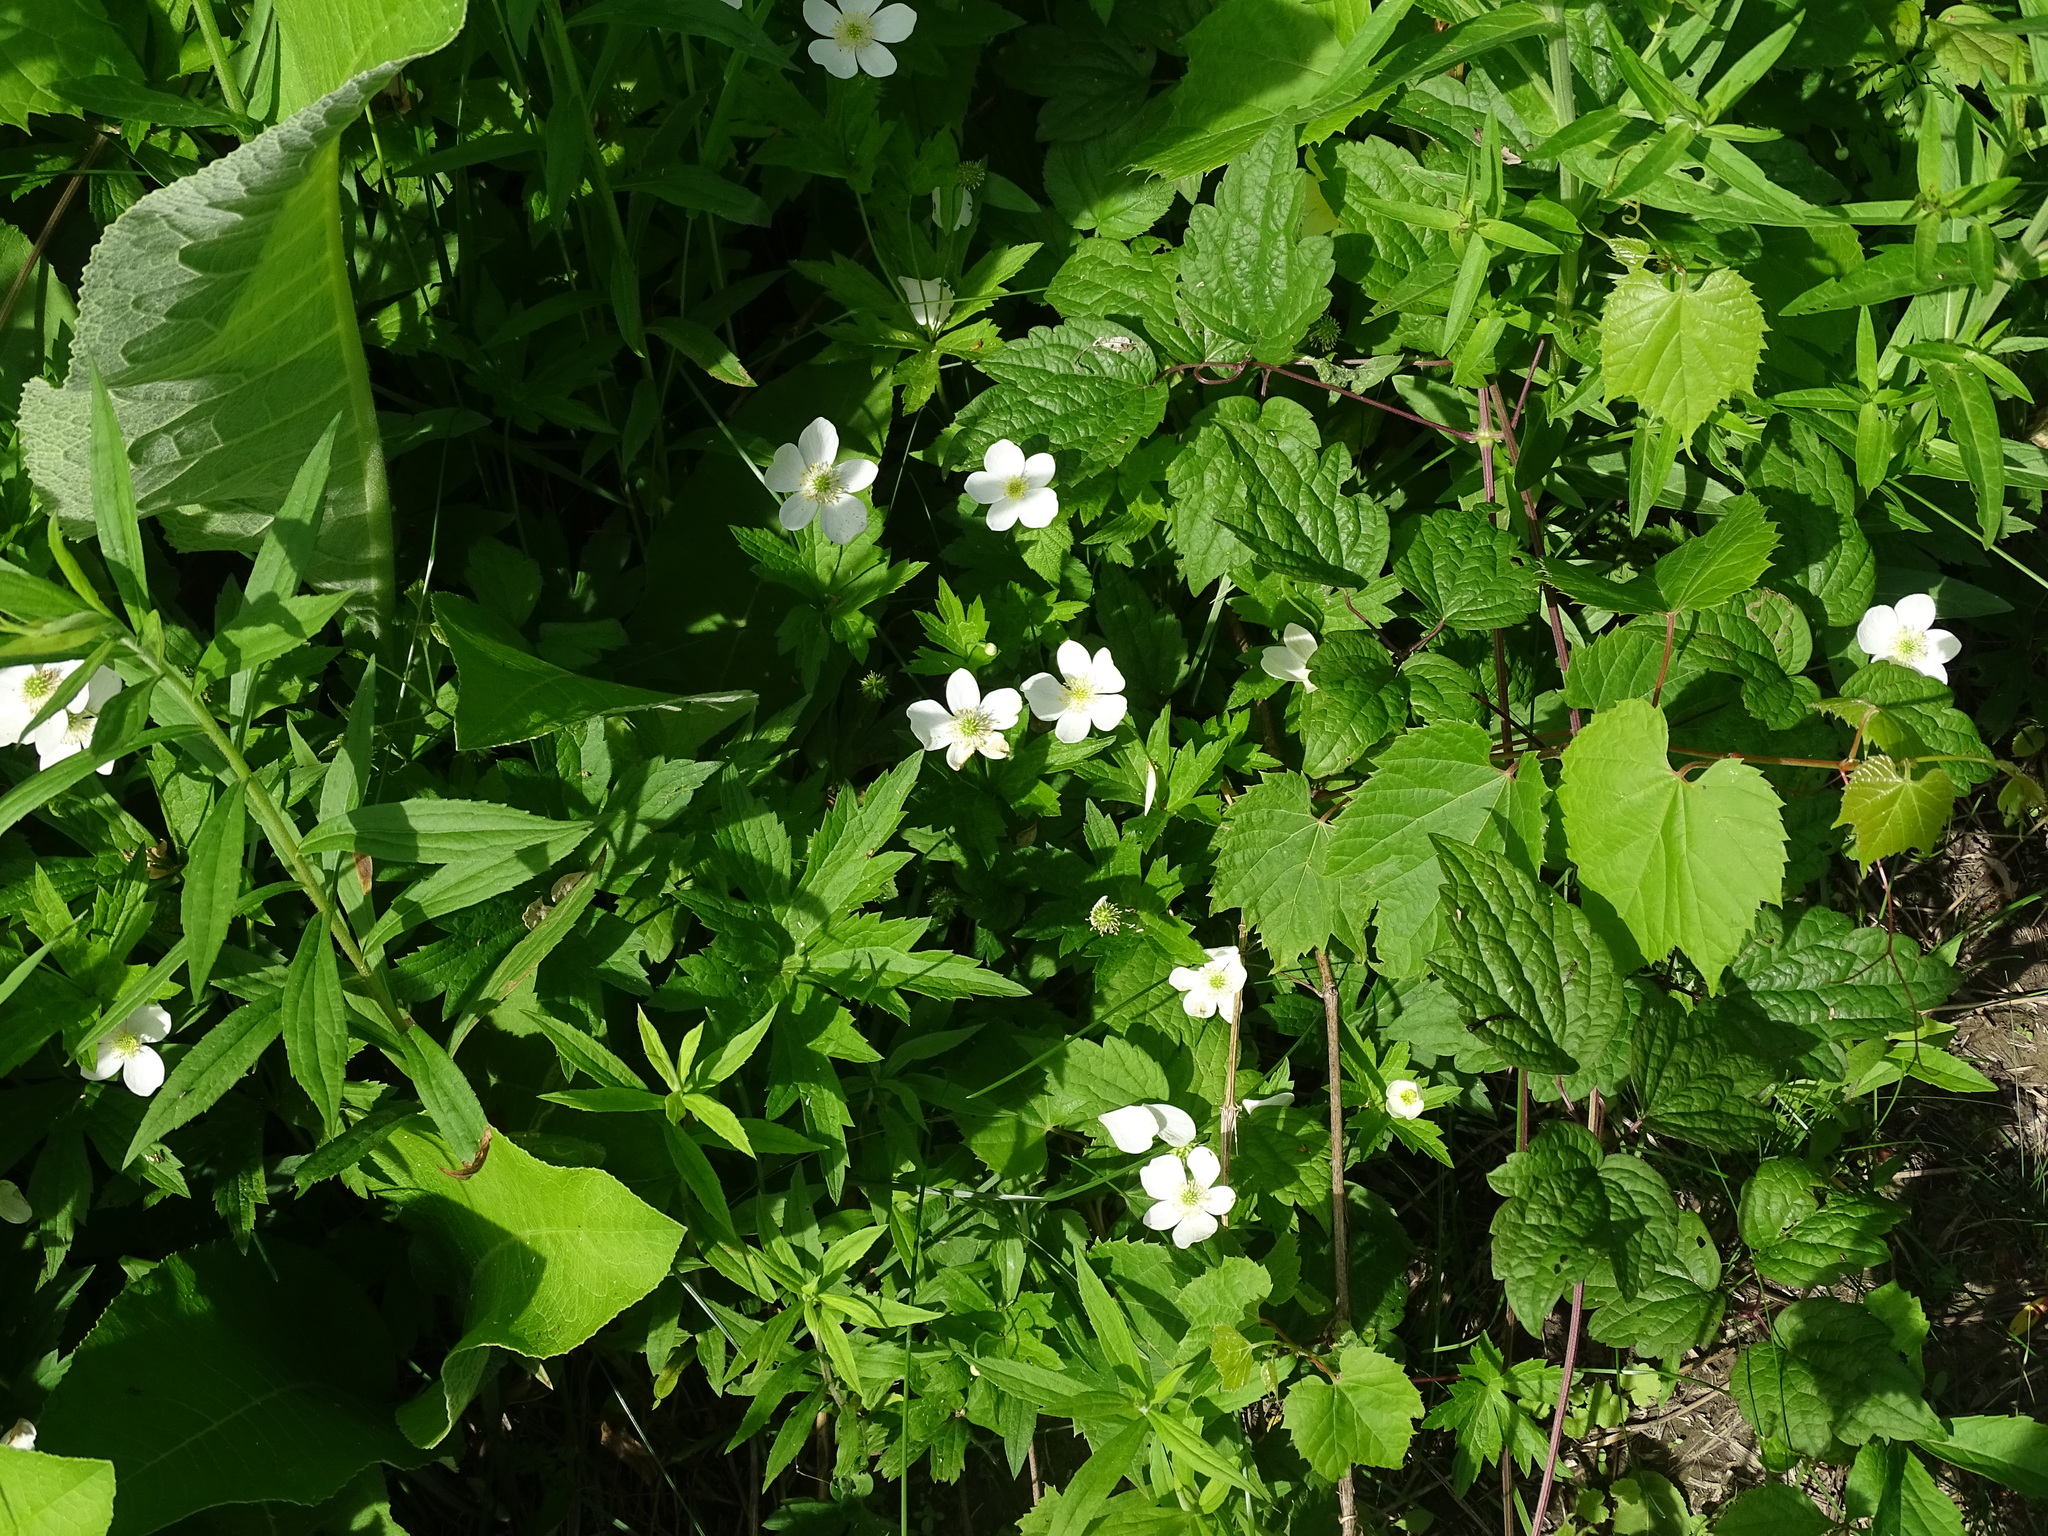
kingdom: Plantae
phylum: Tracheophyta
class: Magnoliopsida
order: Ranunculales
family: Ranunculaceae
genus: Anemonastrum
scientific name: Anemonastrum canadense
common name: Canada anemone
